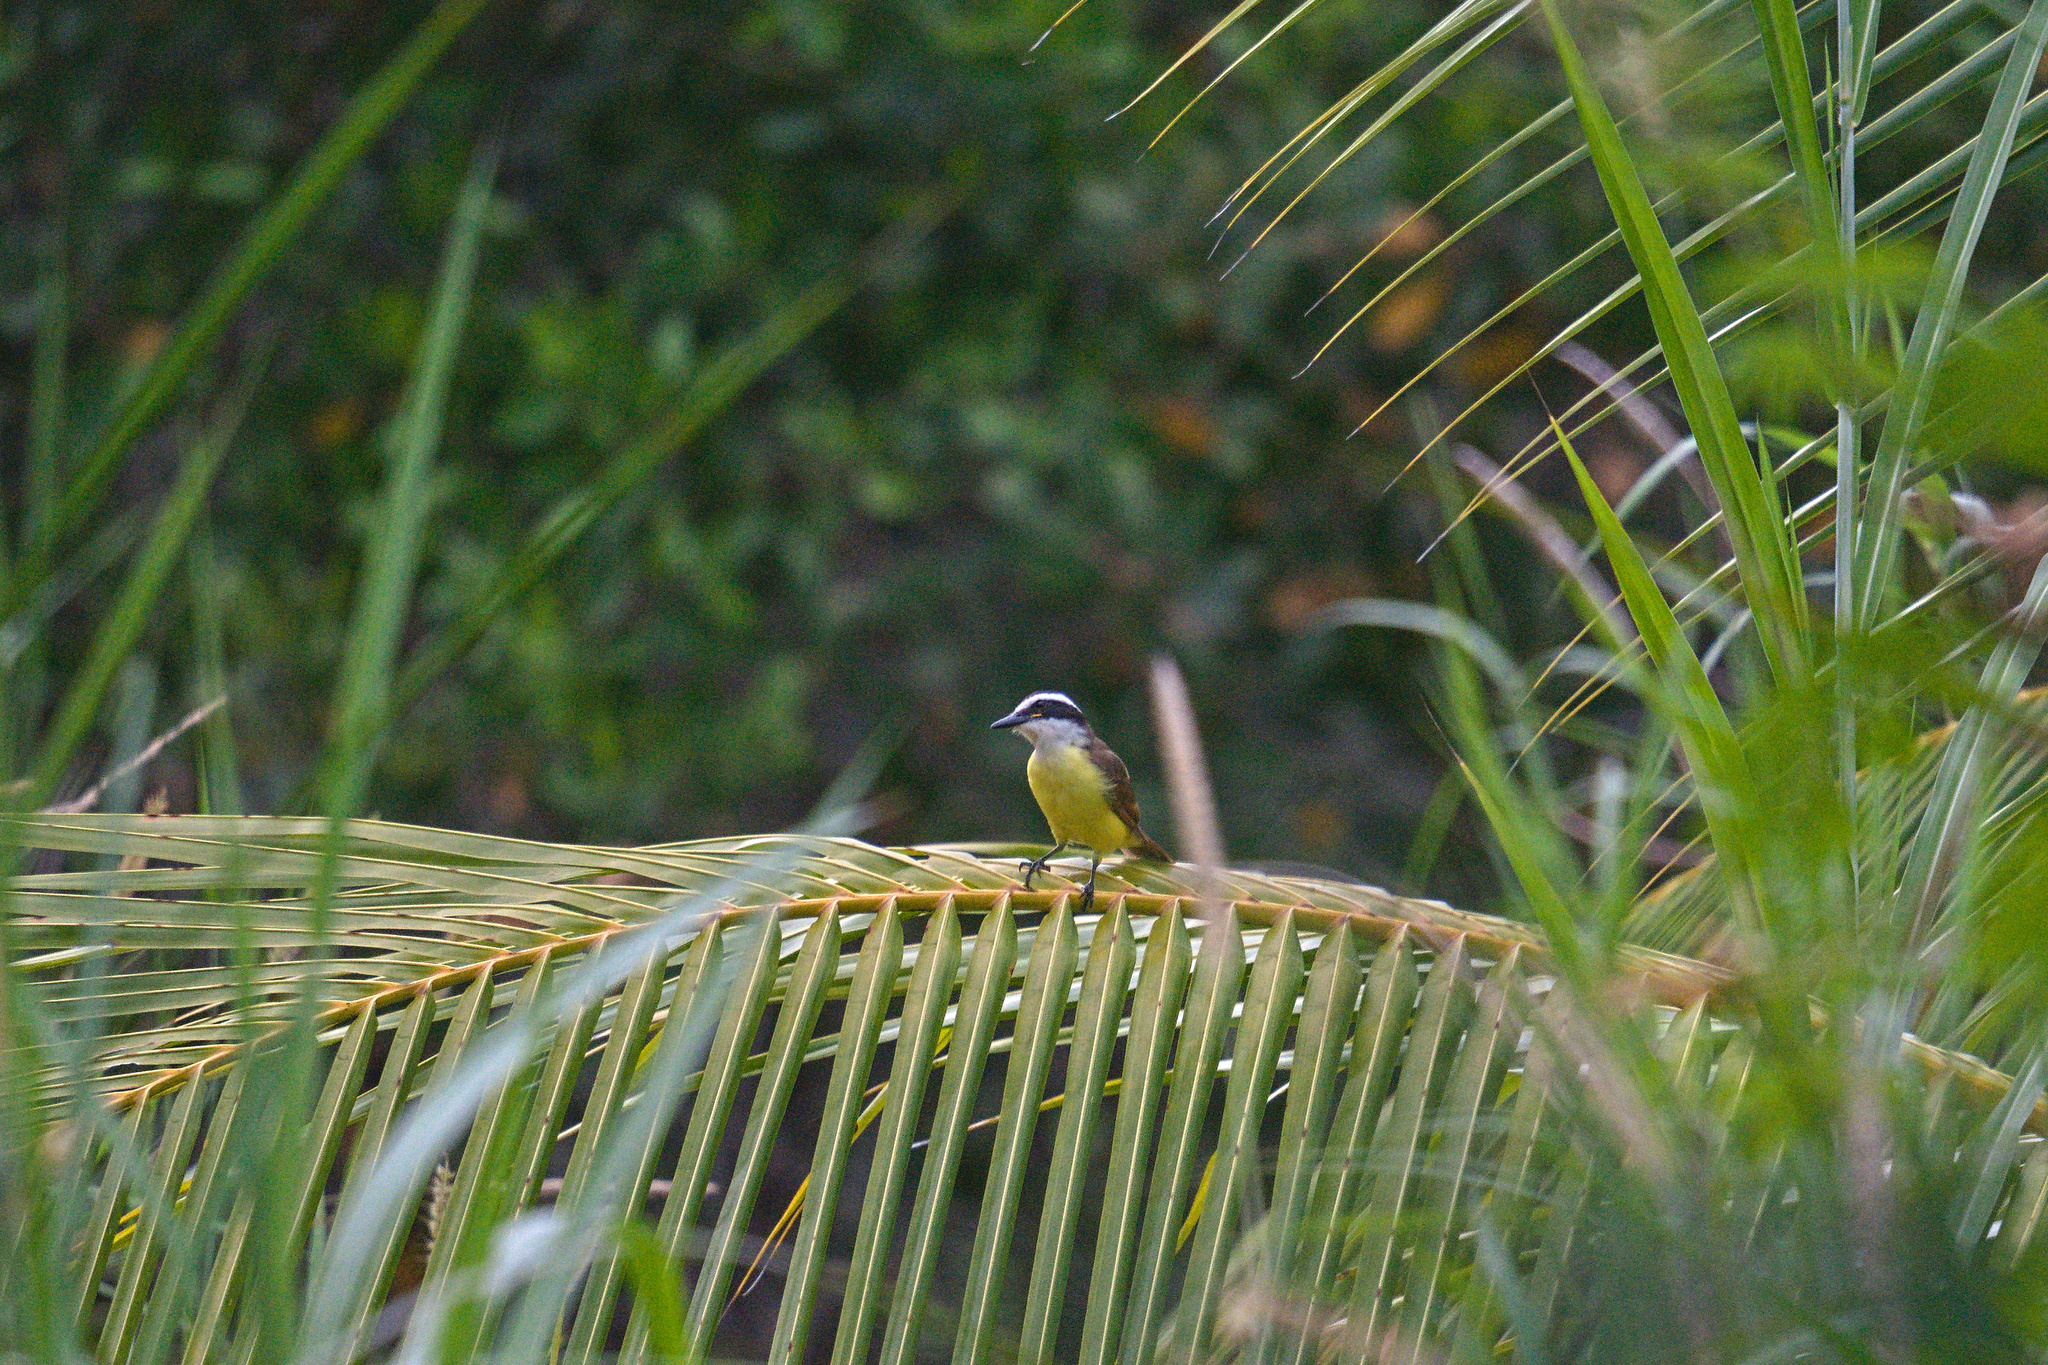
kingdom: Animalia
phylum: Chordata
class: Aves
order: Passeriformes
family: Tyrannidae
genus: Pitangus
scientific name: Pitangus sulphuratus
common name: Great kiskadee
